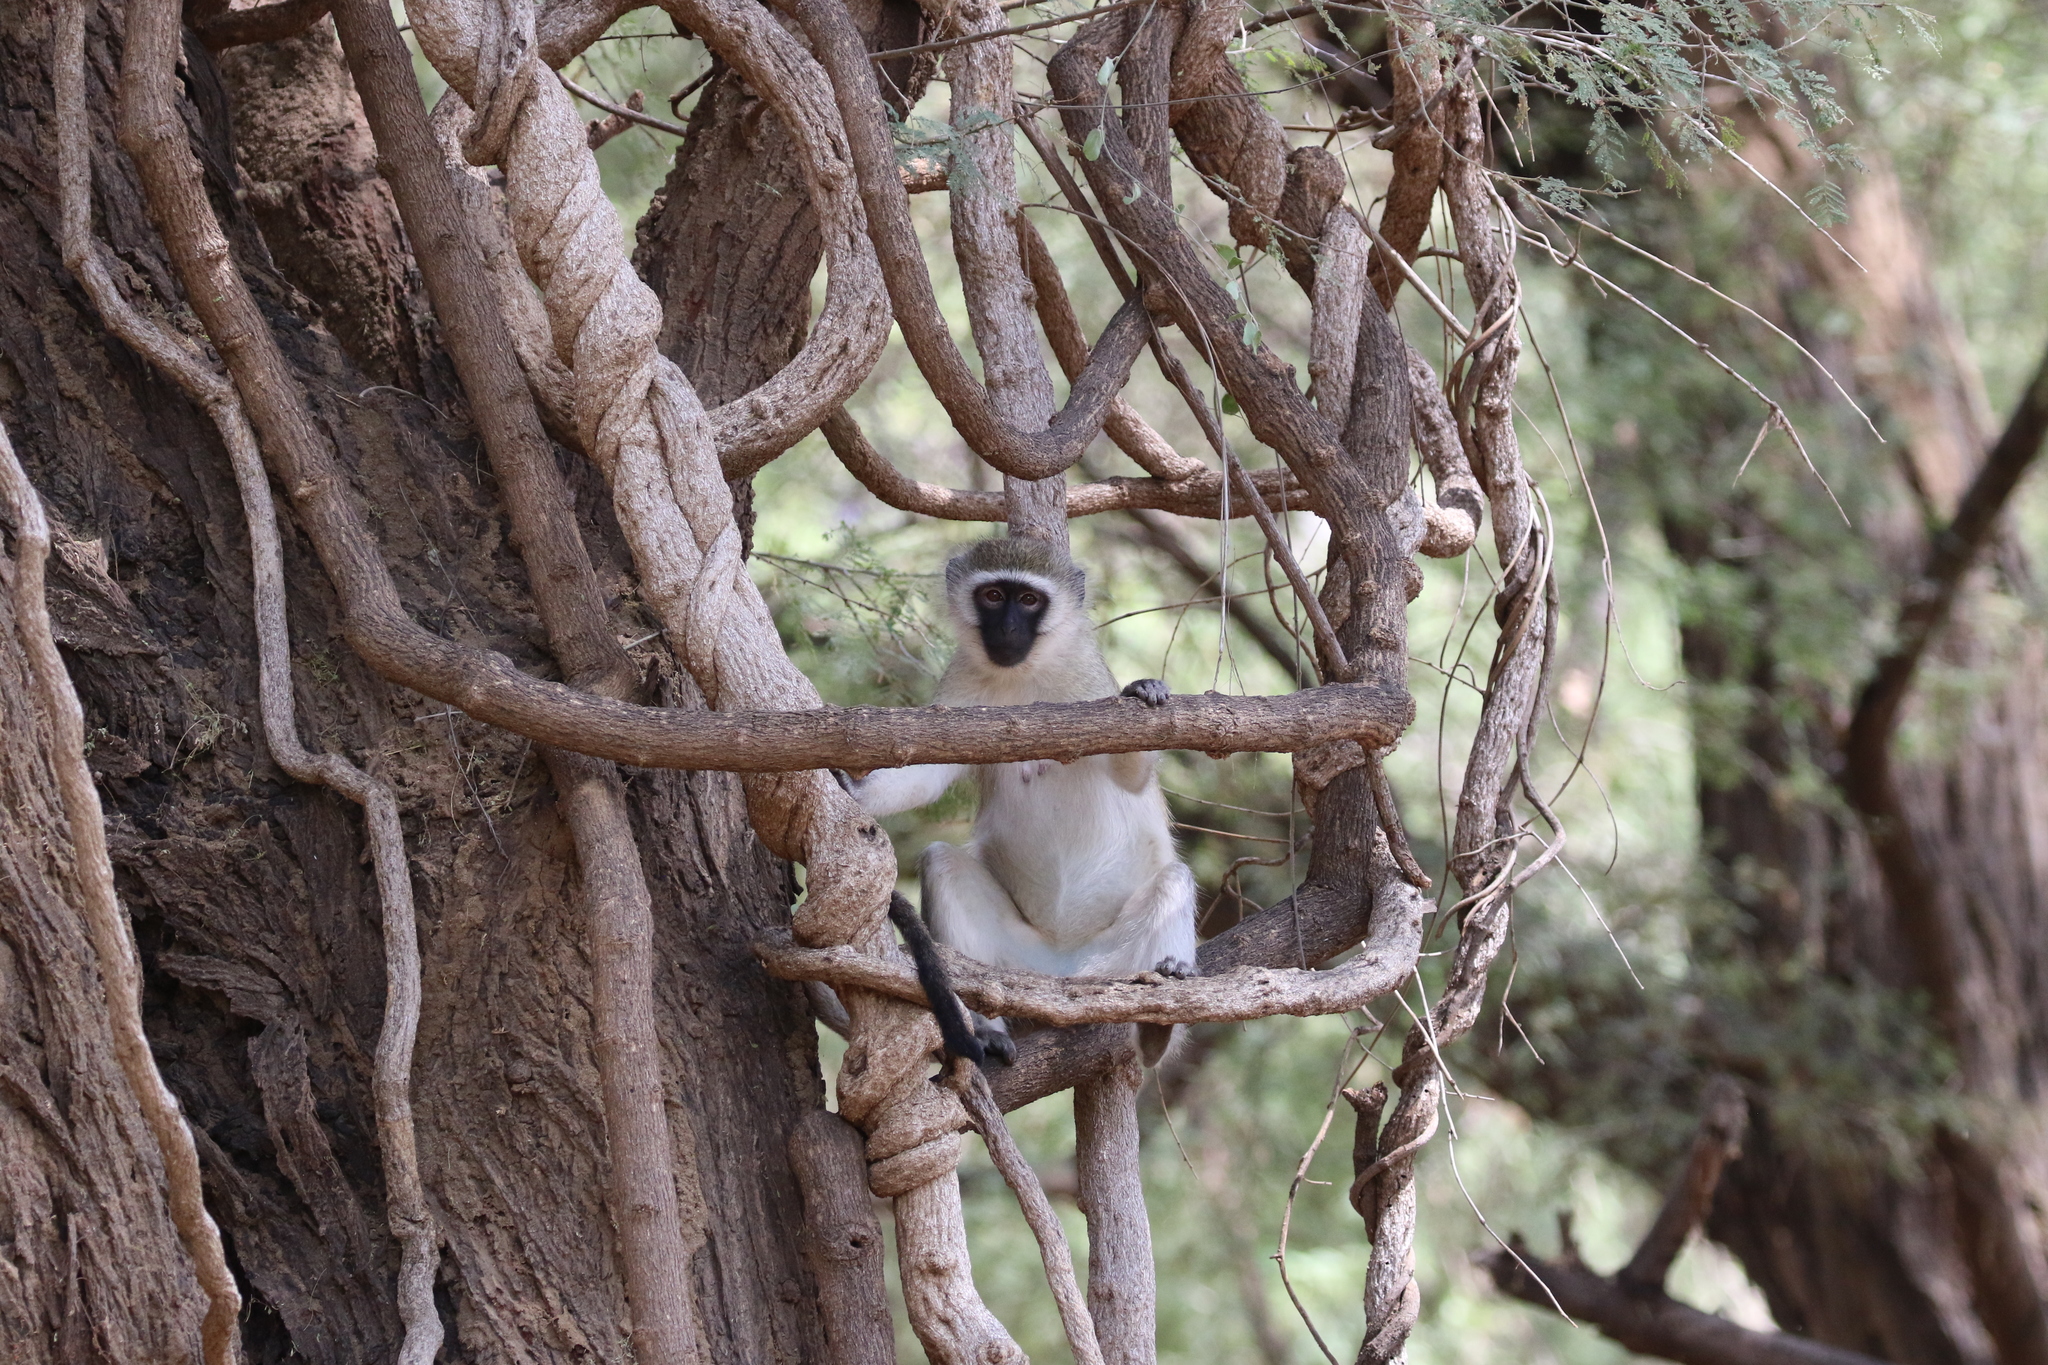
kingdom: Animalia
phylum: Chordata
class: Mammalia
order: Primates
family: Cercopithecidae
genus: Chlorocebus
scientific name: Chlorocebus pygerythrus
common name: Vervet monkey
